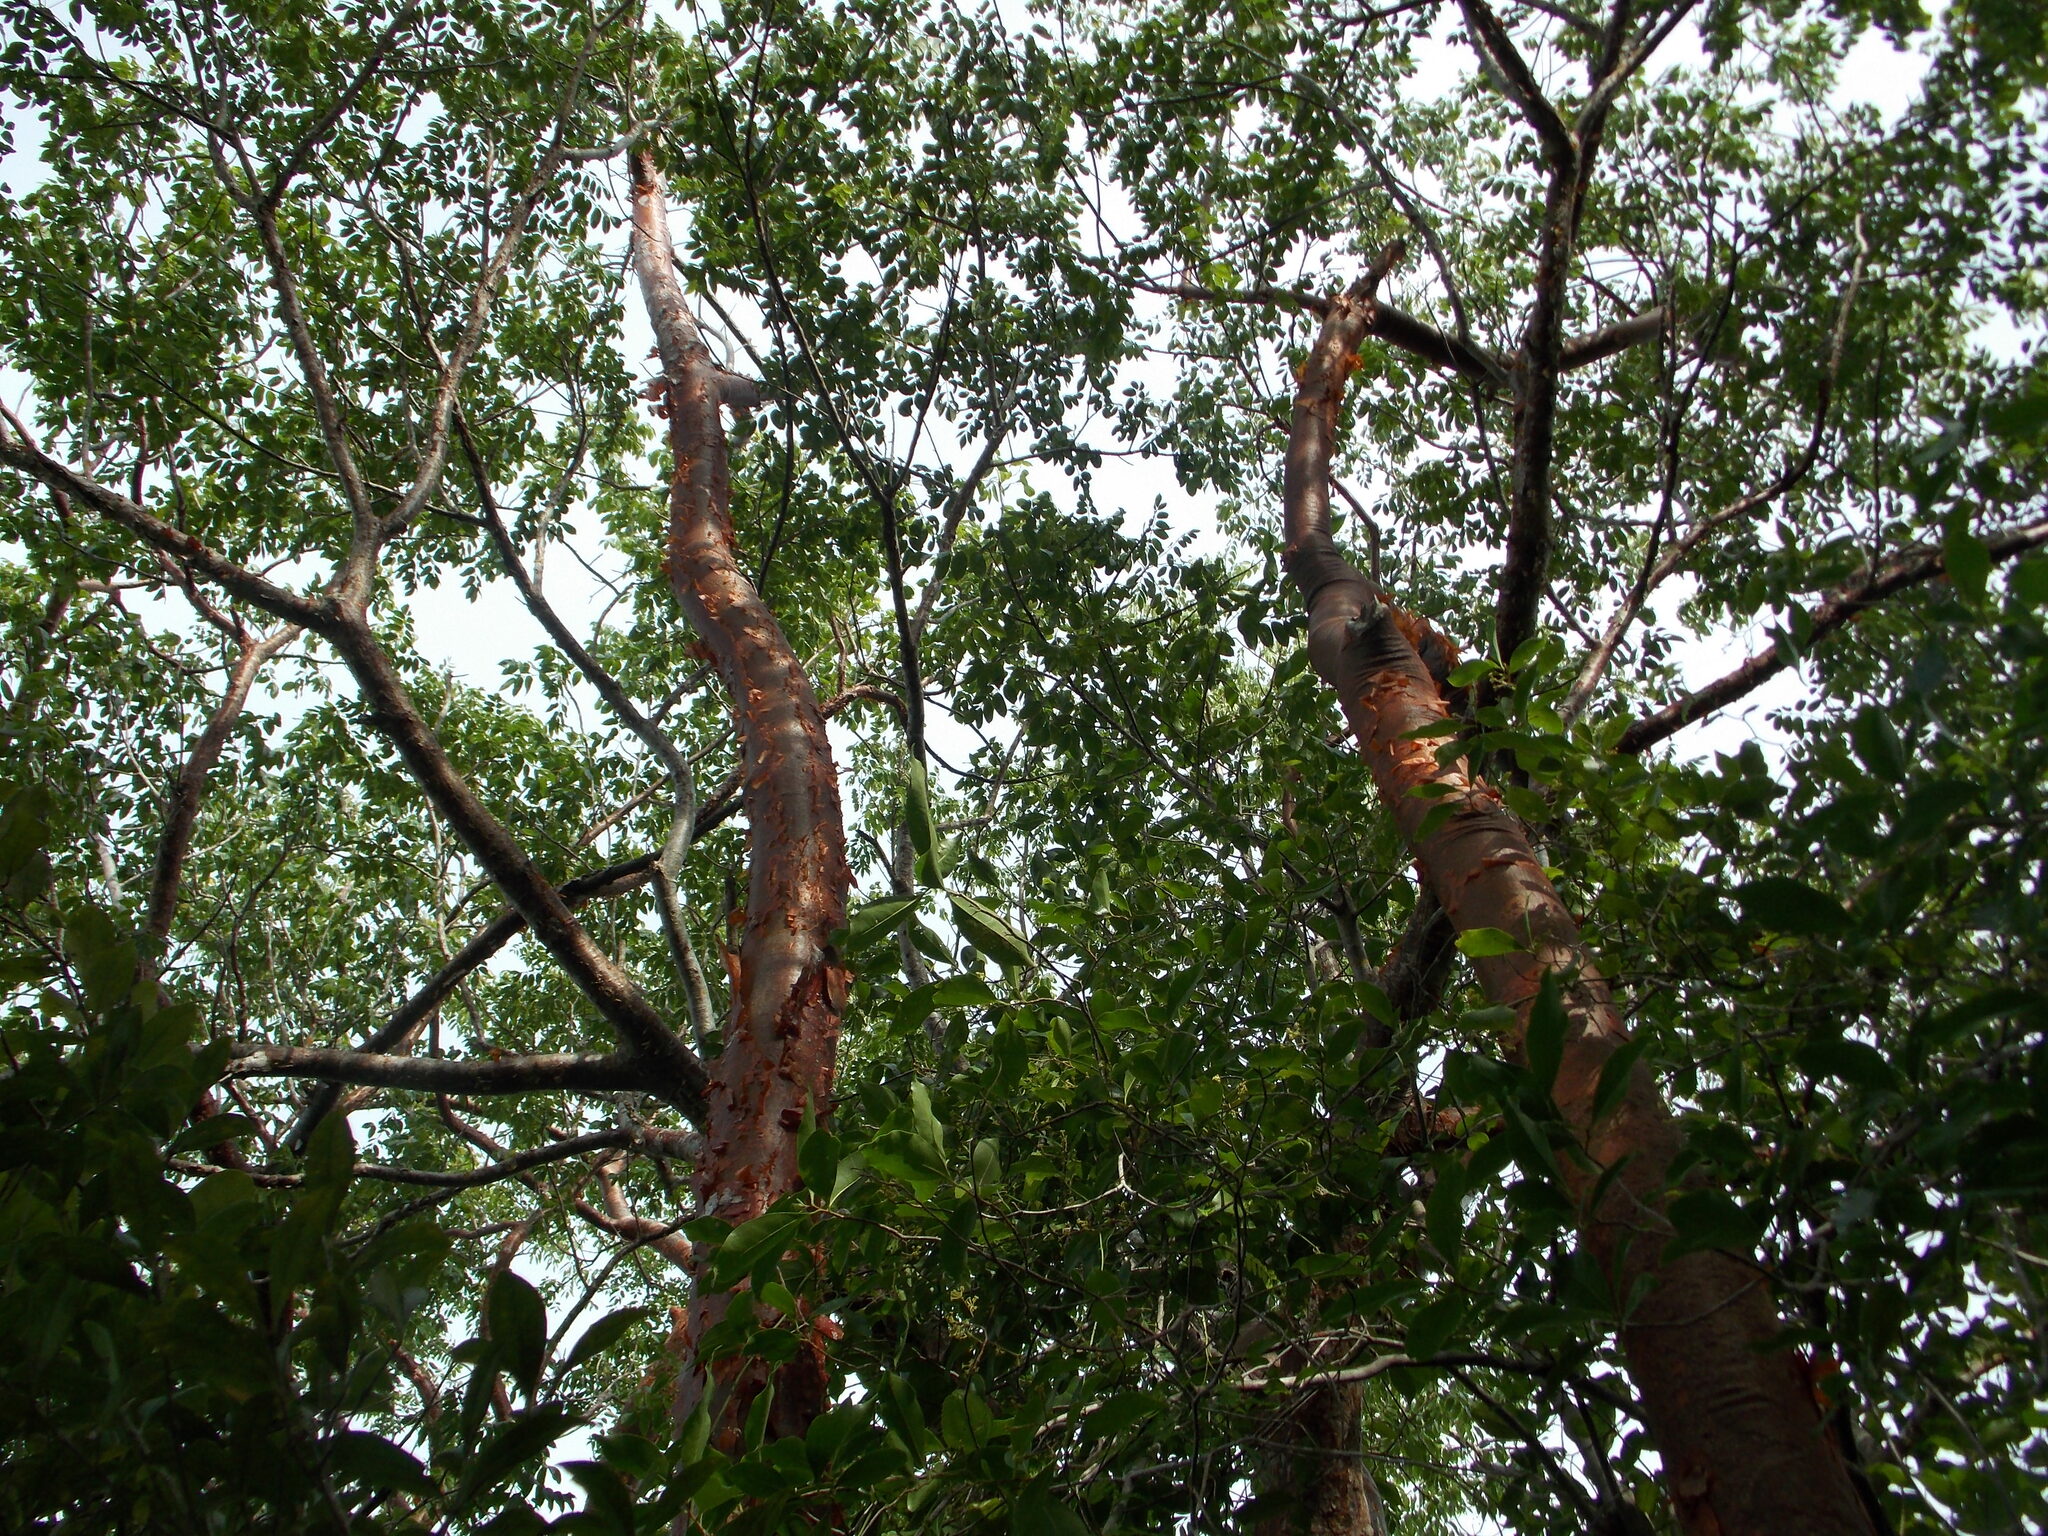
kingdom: Plantae
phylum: Tracheophyta
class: Magnoliopsida
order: Sapindales
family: Burseraceae
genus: Bursera
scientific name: Bursera simaruba
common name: Turpentine tree
